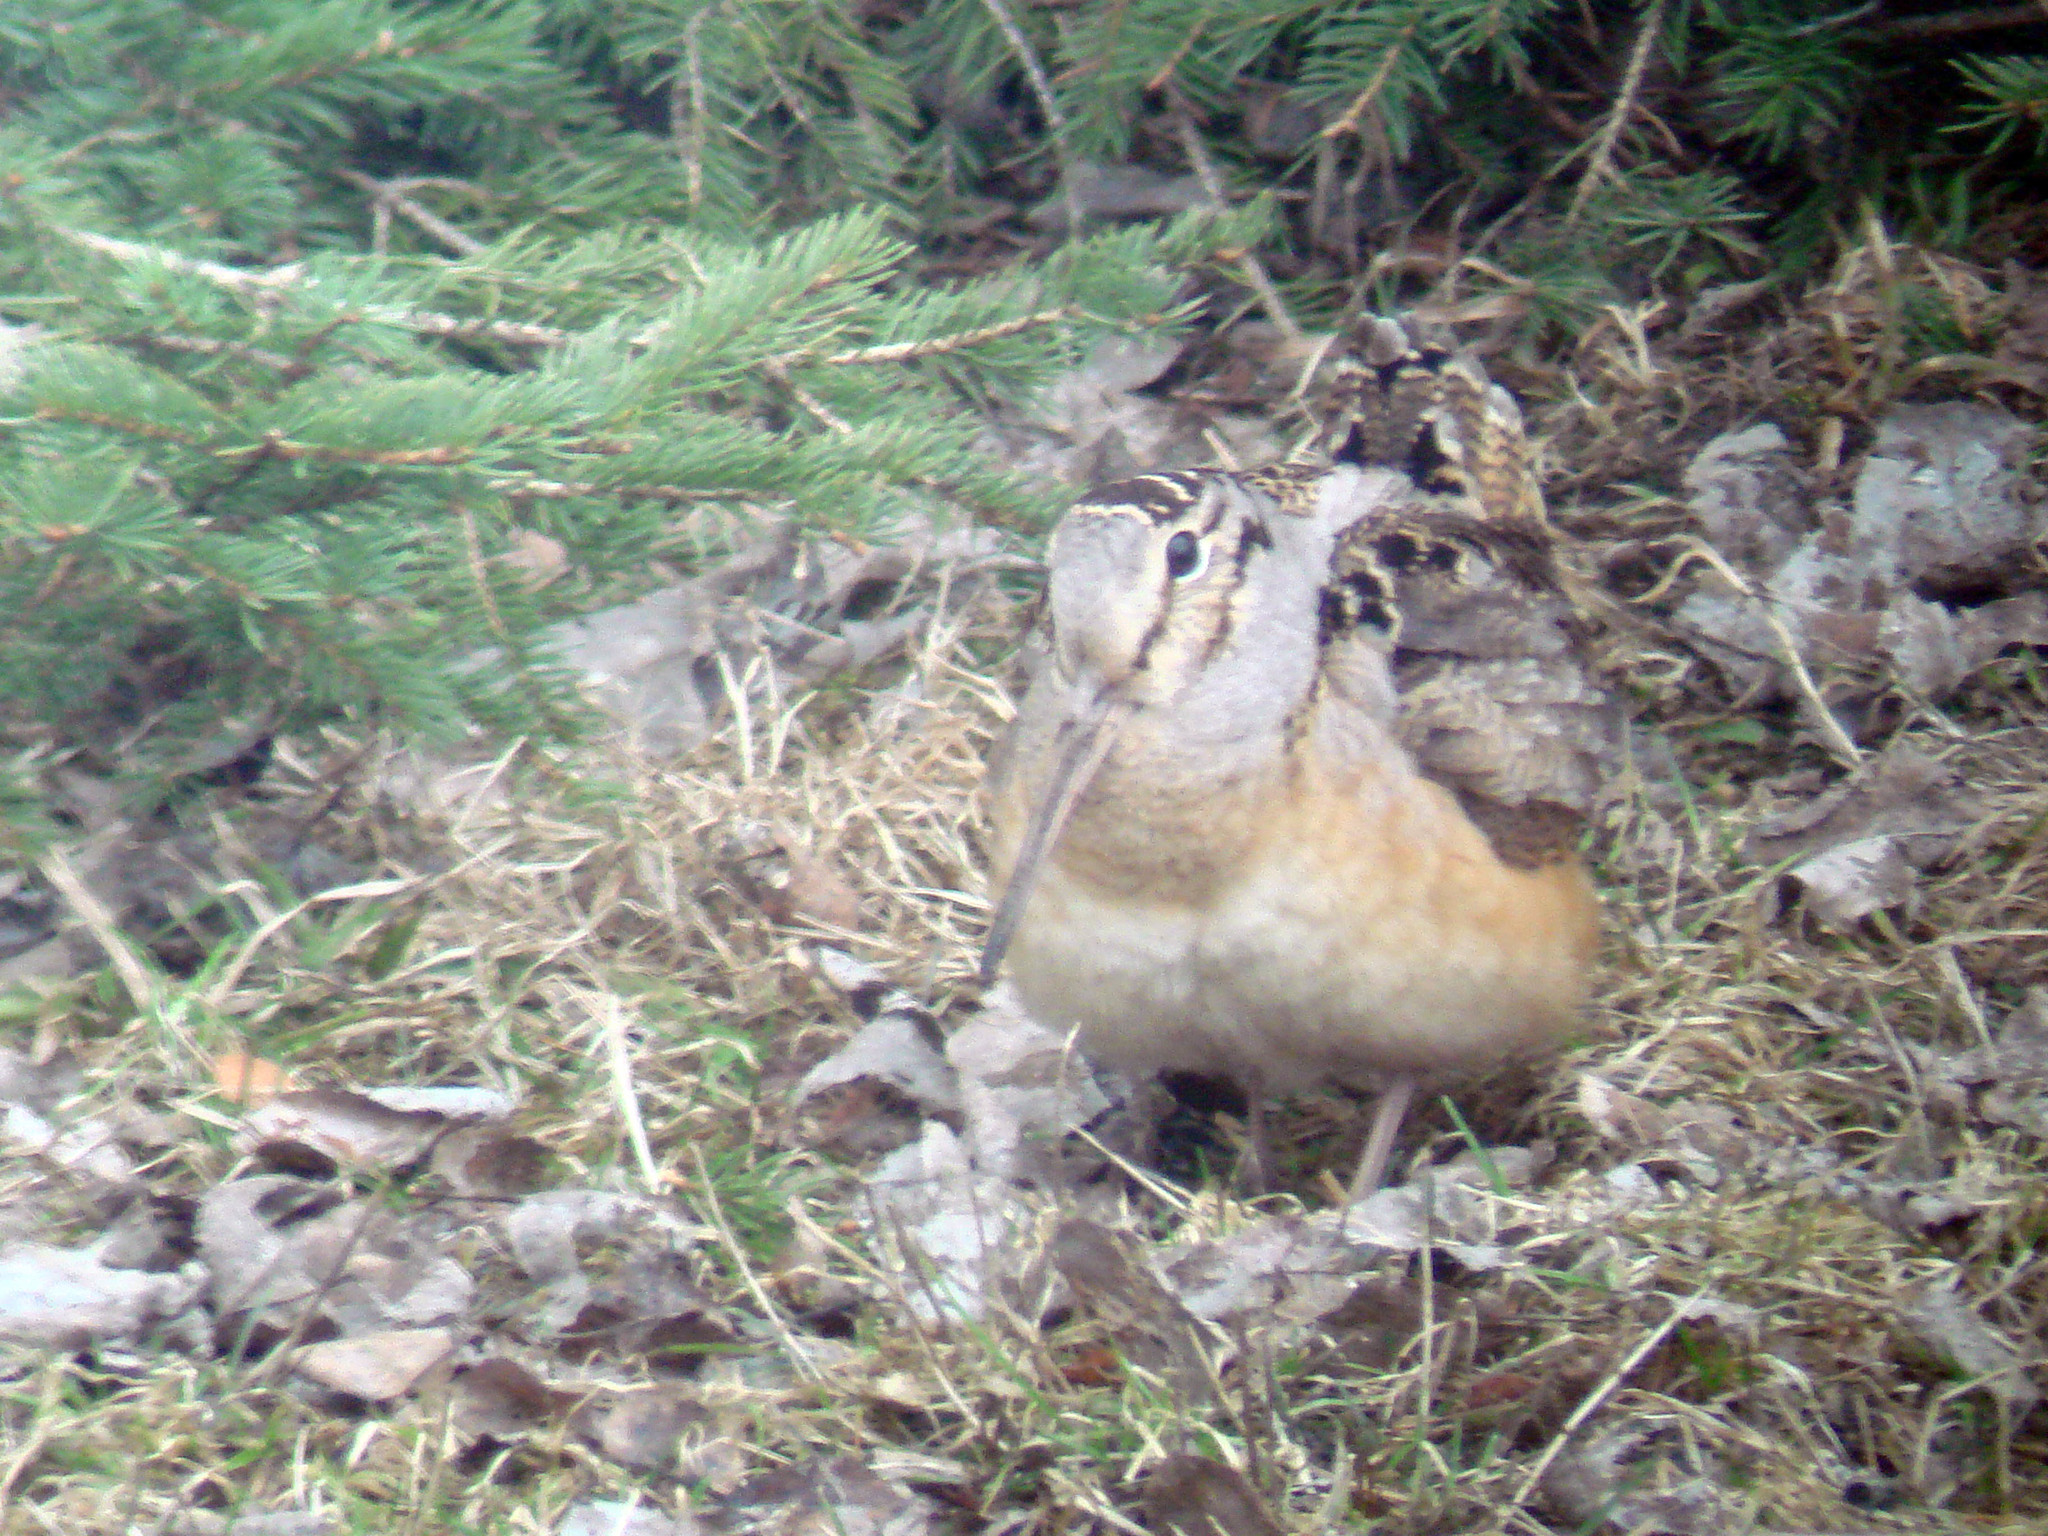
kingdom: Animalia
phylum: Chordata
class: Aves
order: Charadriiformes
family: Scolopacidae
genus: Scolopax
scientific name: Scolopax minor
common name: American woodcock
